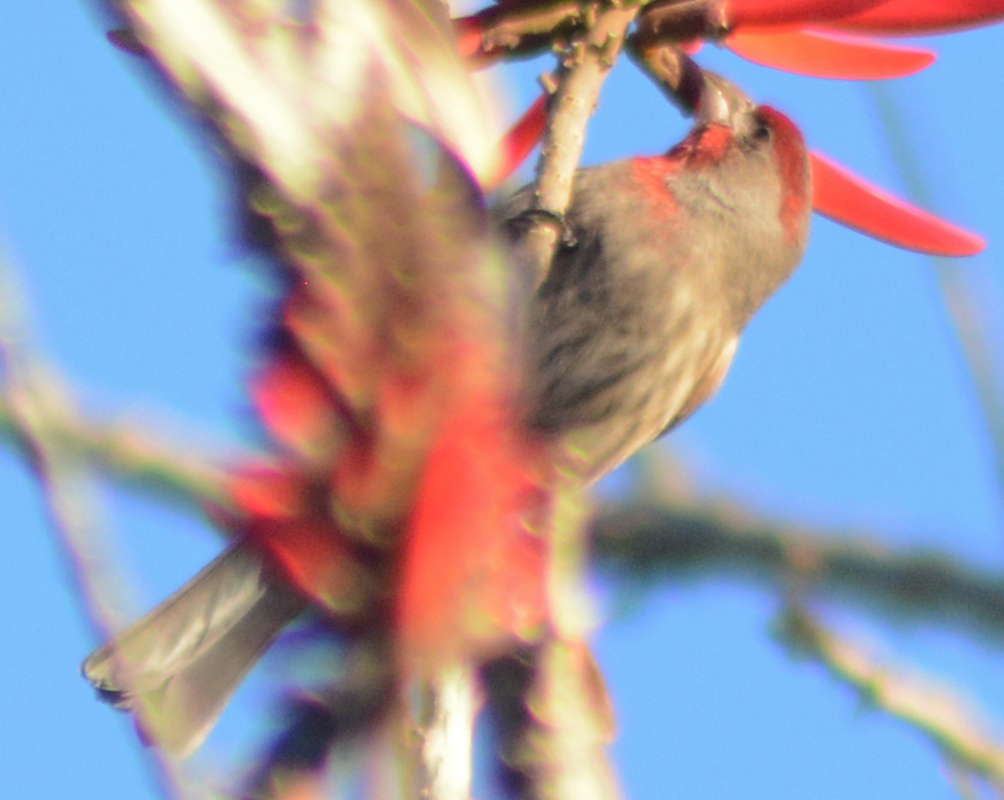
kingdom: Animalia
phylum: Chordata
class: Aves
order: Passeriformes
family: Fringillidae
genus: Haemorhous
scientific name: Haemorhous mexicanus
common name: House finch
